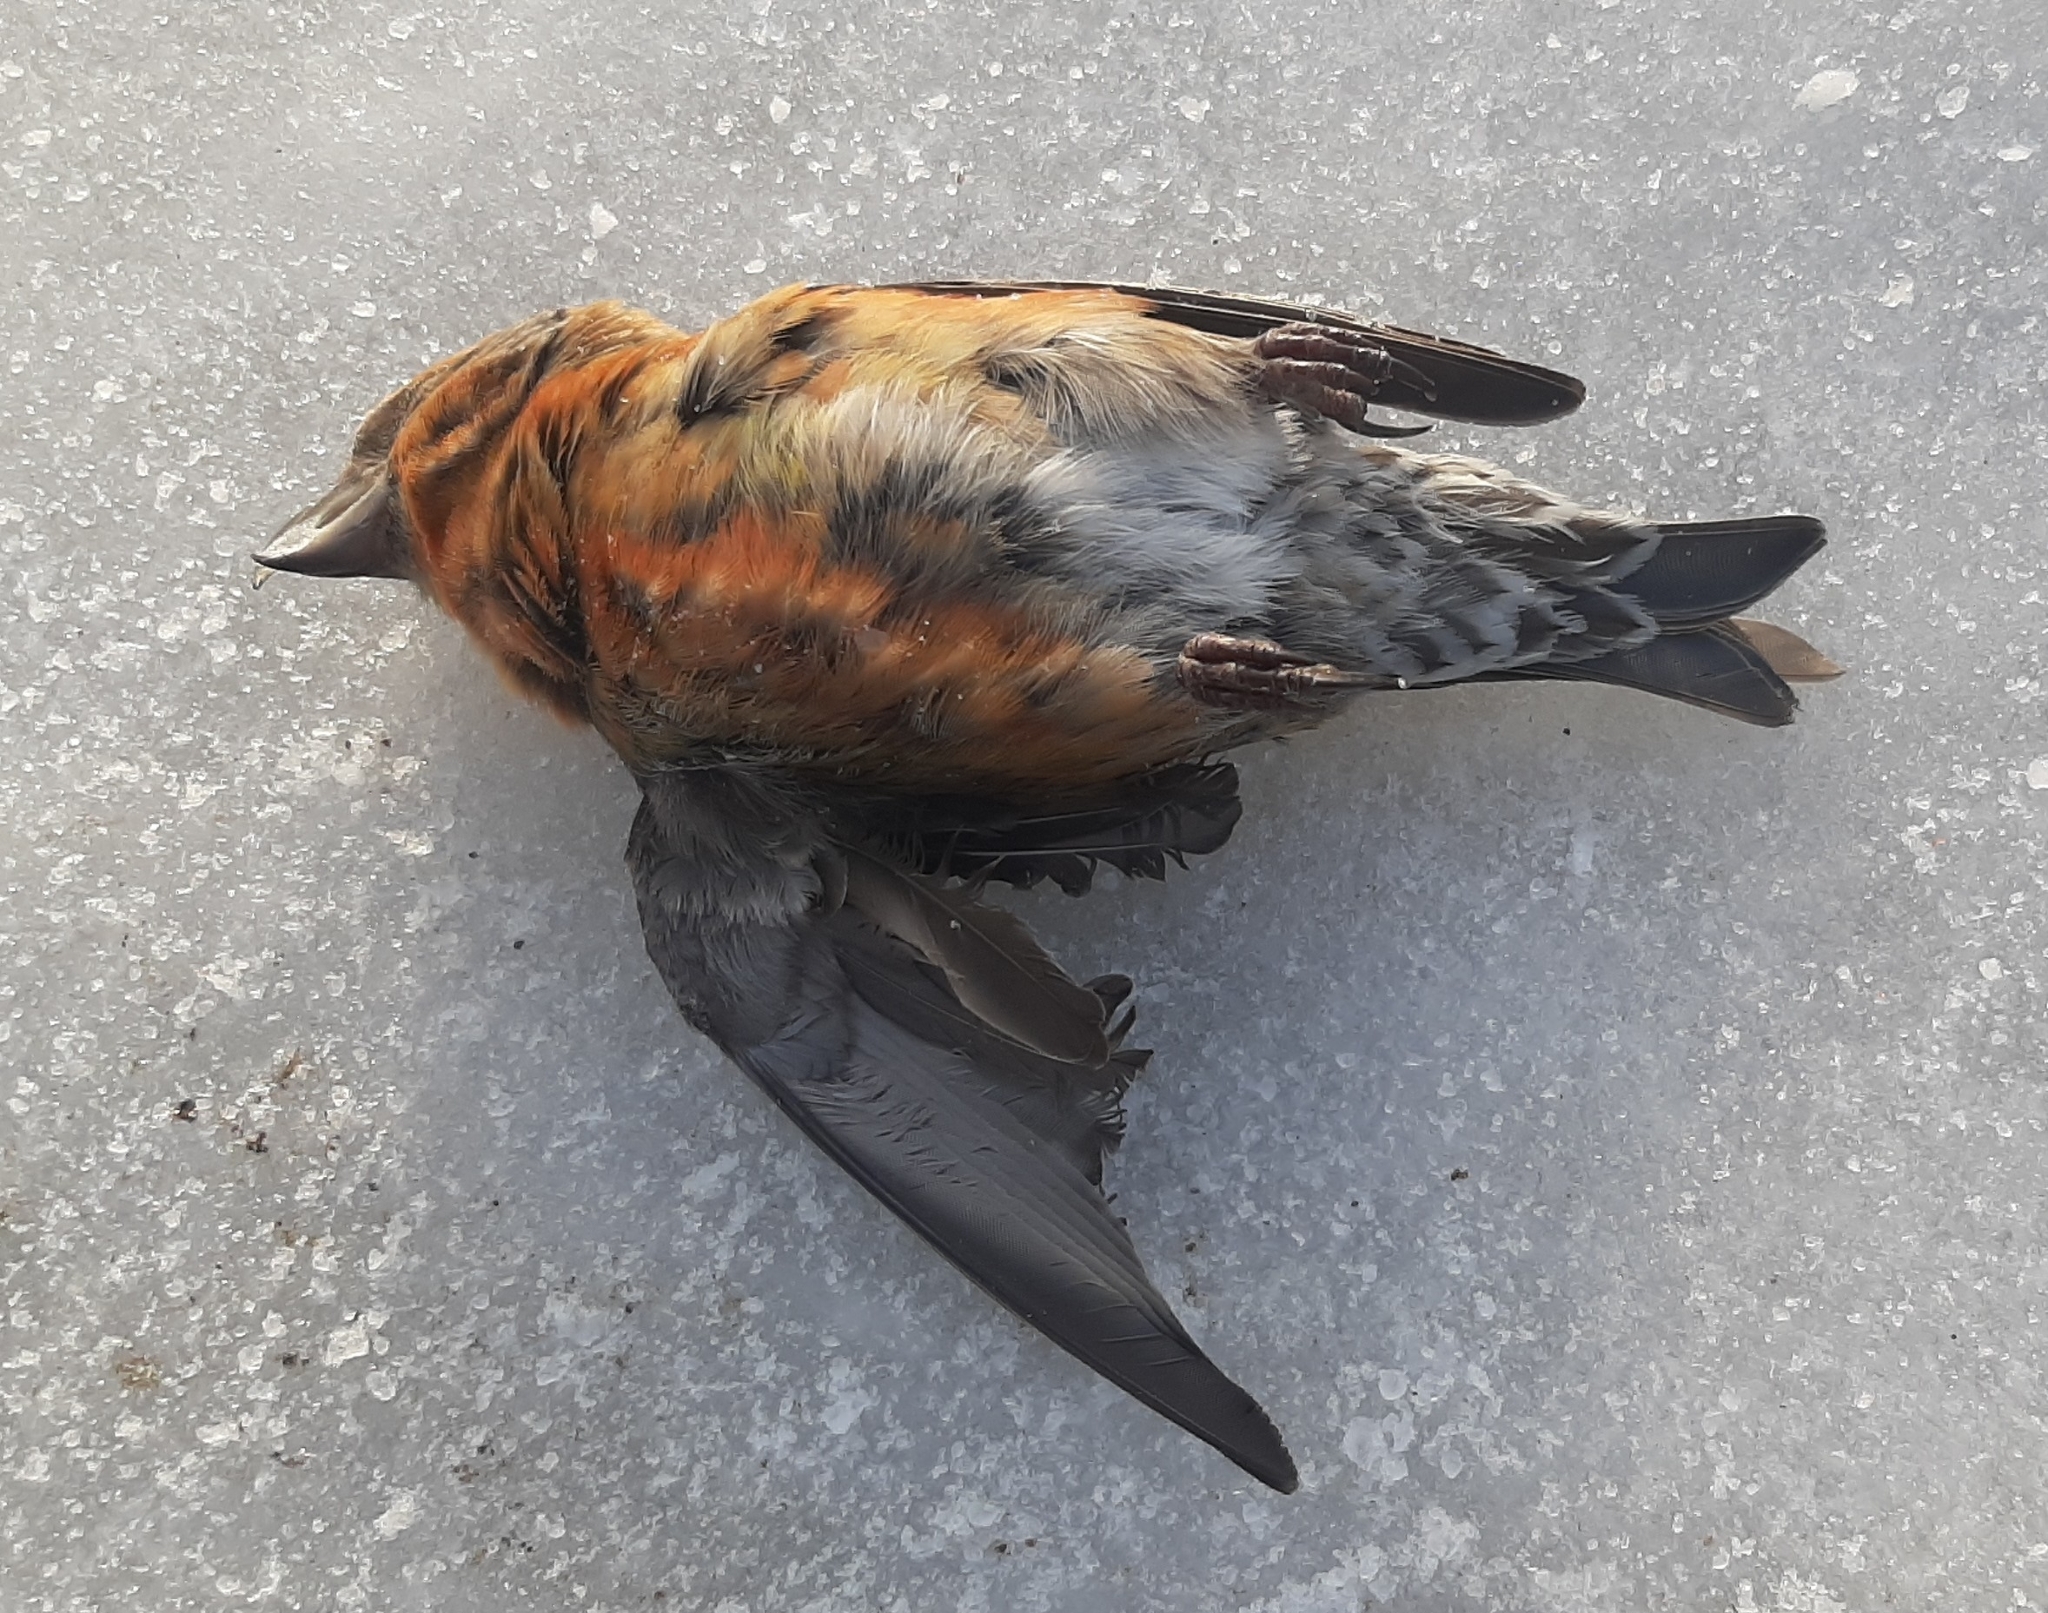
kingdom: Animalia
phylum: Chordata
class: Aves
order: Passeriformes
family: Fringillidae
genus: Loxia
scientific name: Loxia curvirostra
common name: Red crossbill
